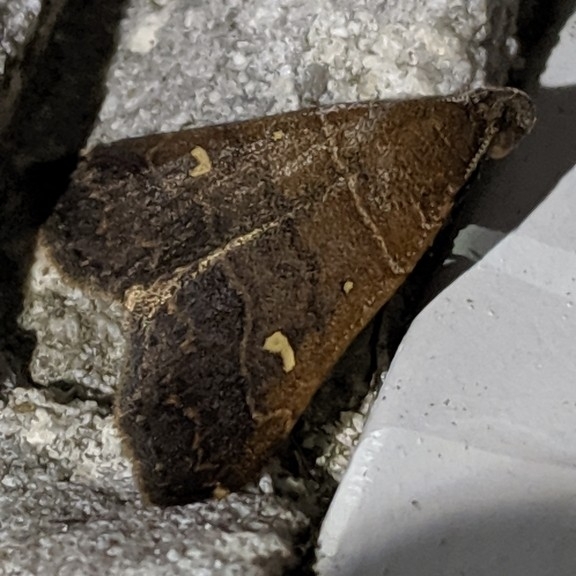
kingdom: Animalia
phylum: Arthropoda
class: Insecta
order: Lepidoptera
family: Erebidae
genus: Bleptina
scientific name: Bleptina verticalis
